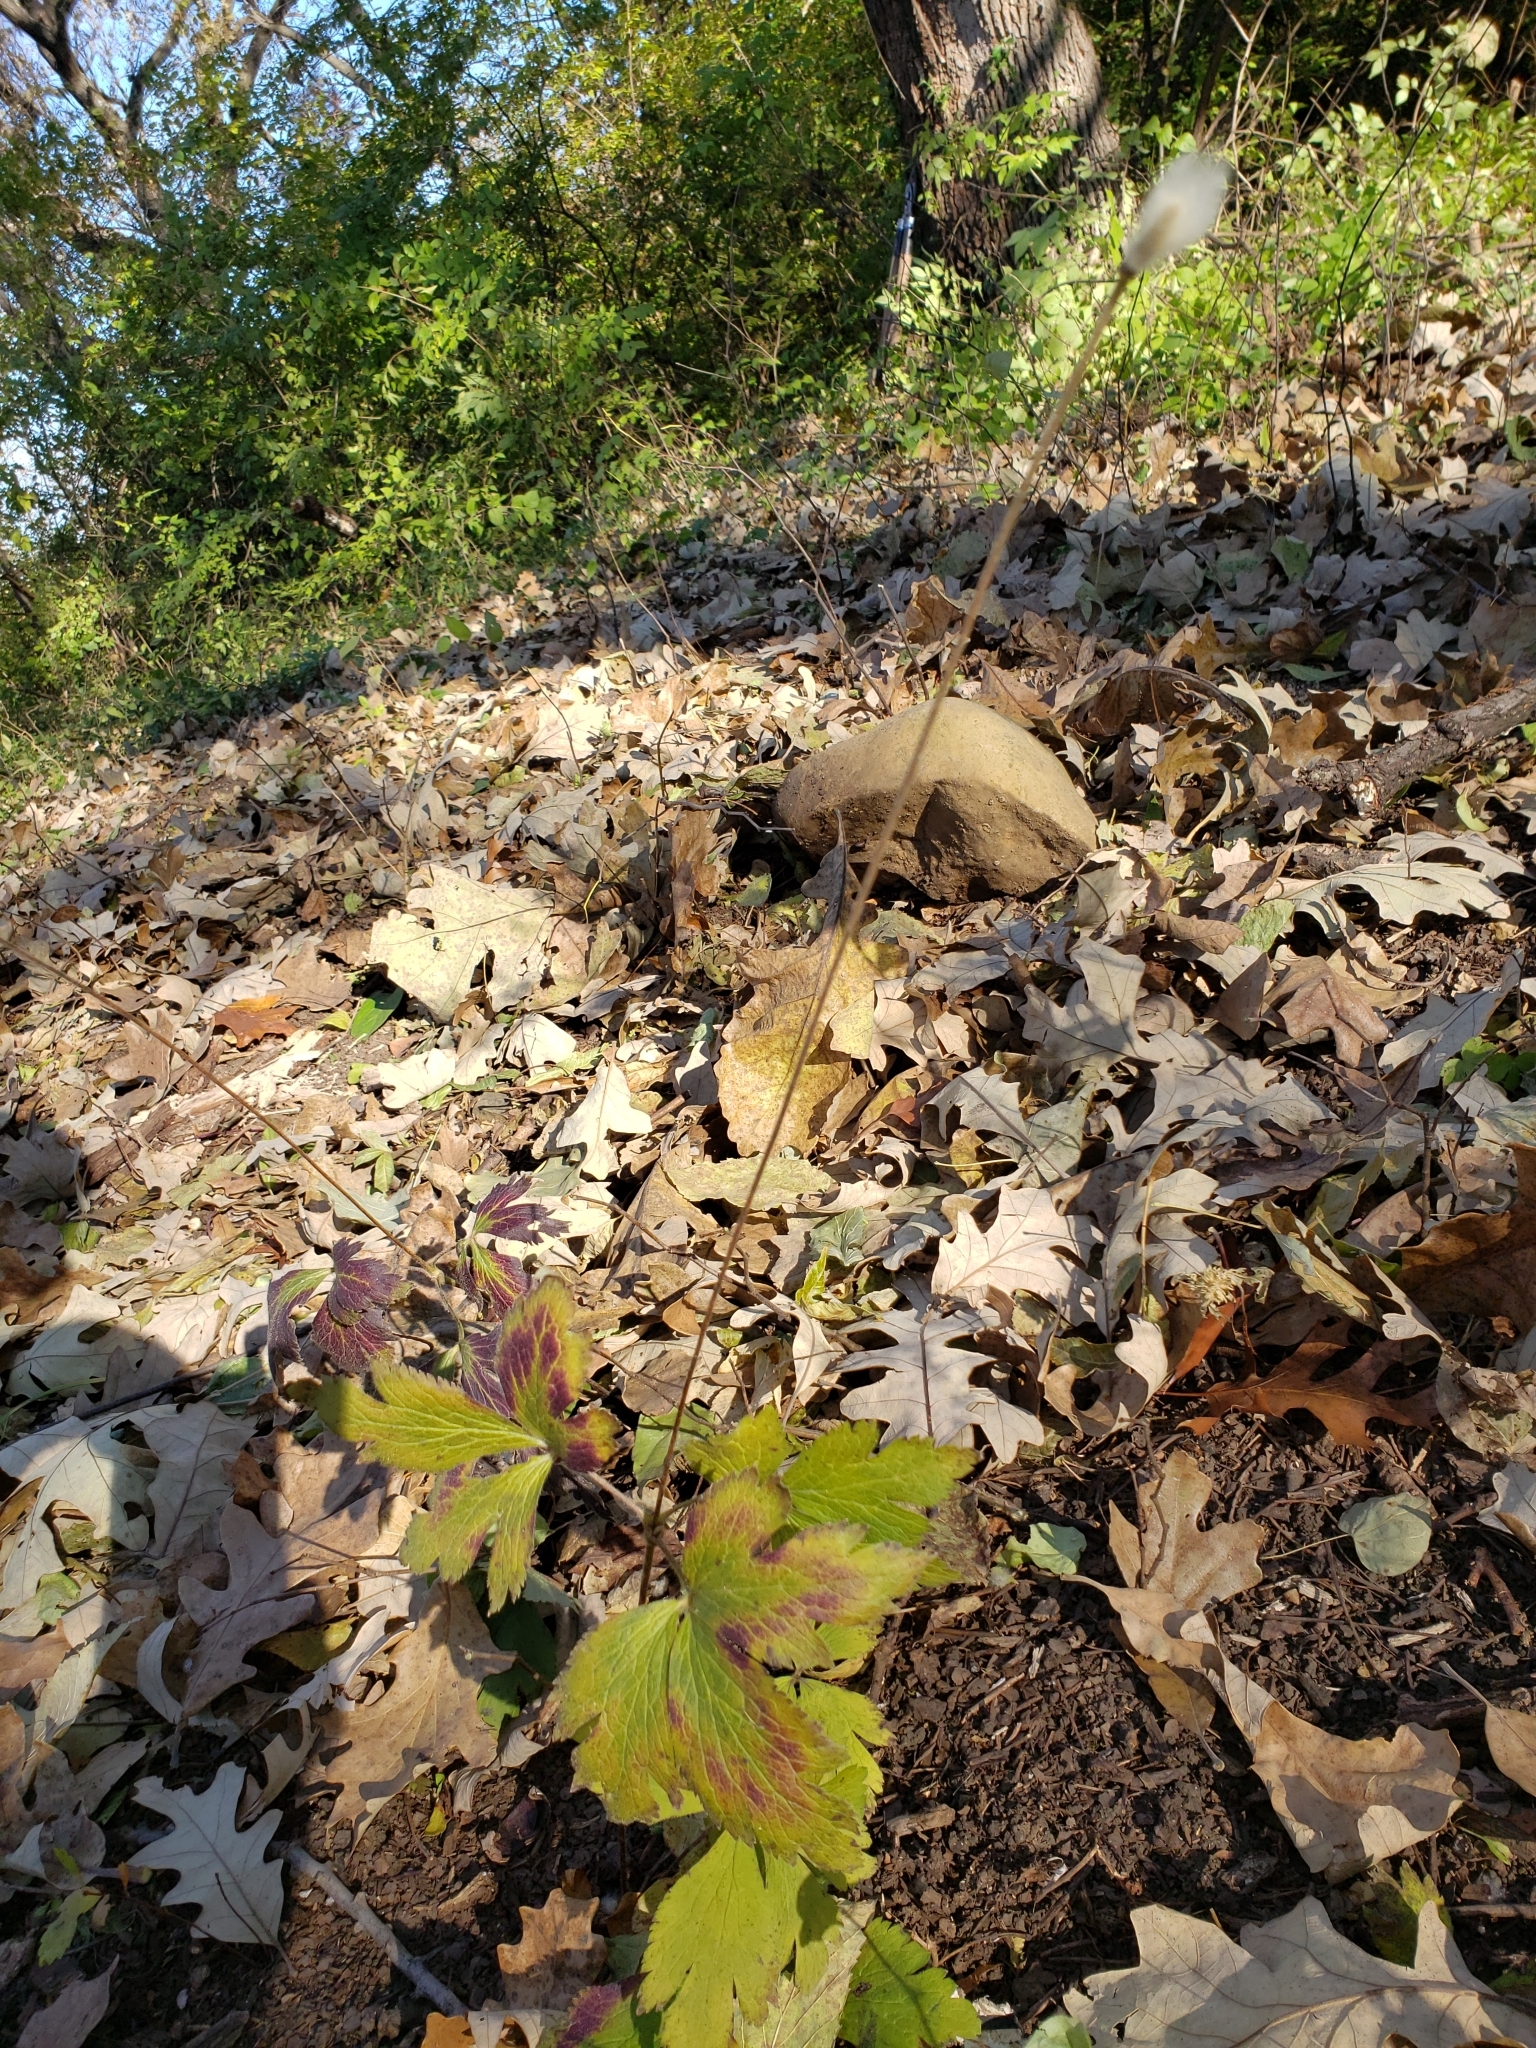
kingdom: Plantae
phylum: Tracheophyta
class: Magnoliopsida
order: Ranunculales
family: Ranunculaceae
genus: Anemone
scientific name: Anemone virginiana
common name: Tall anemone
